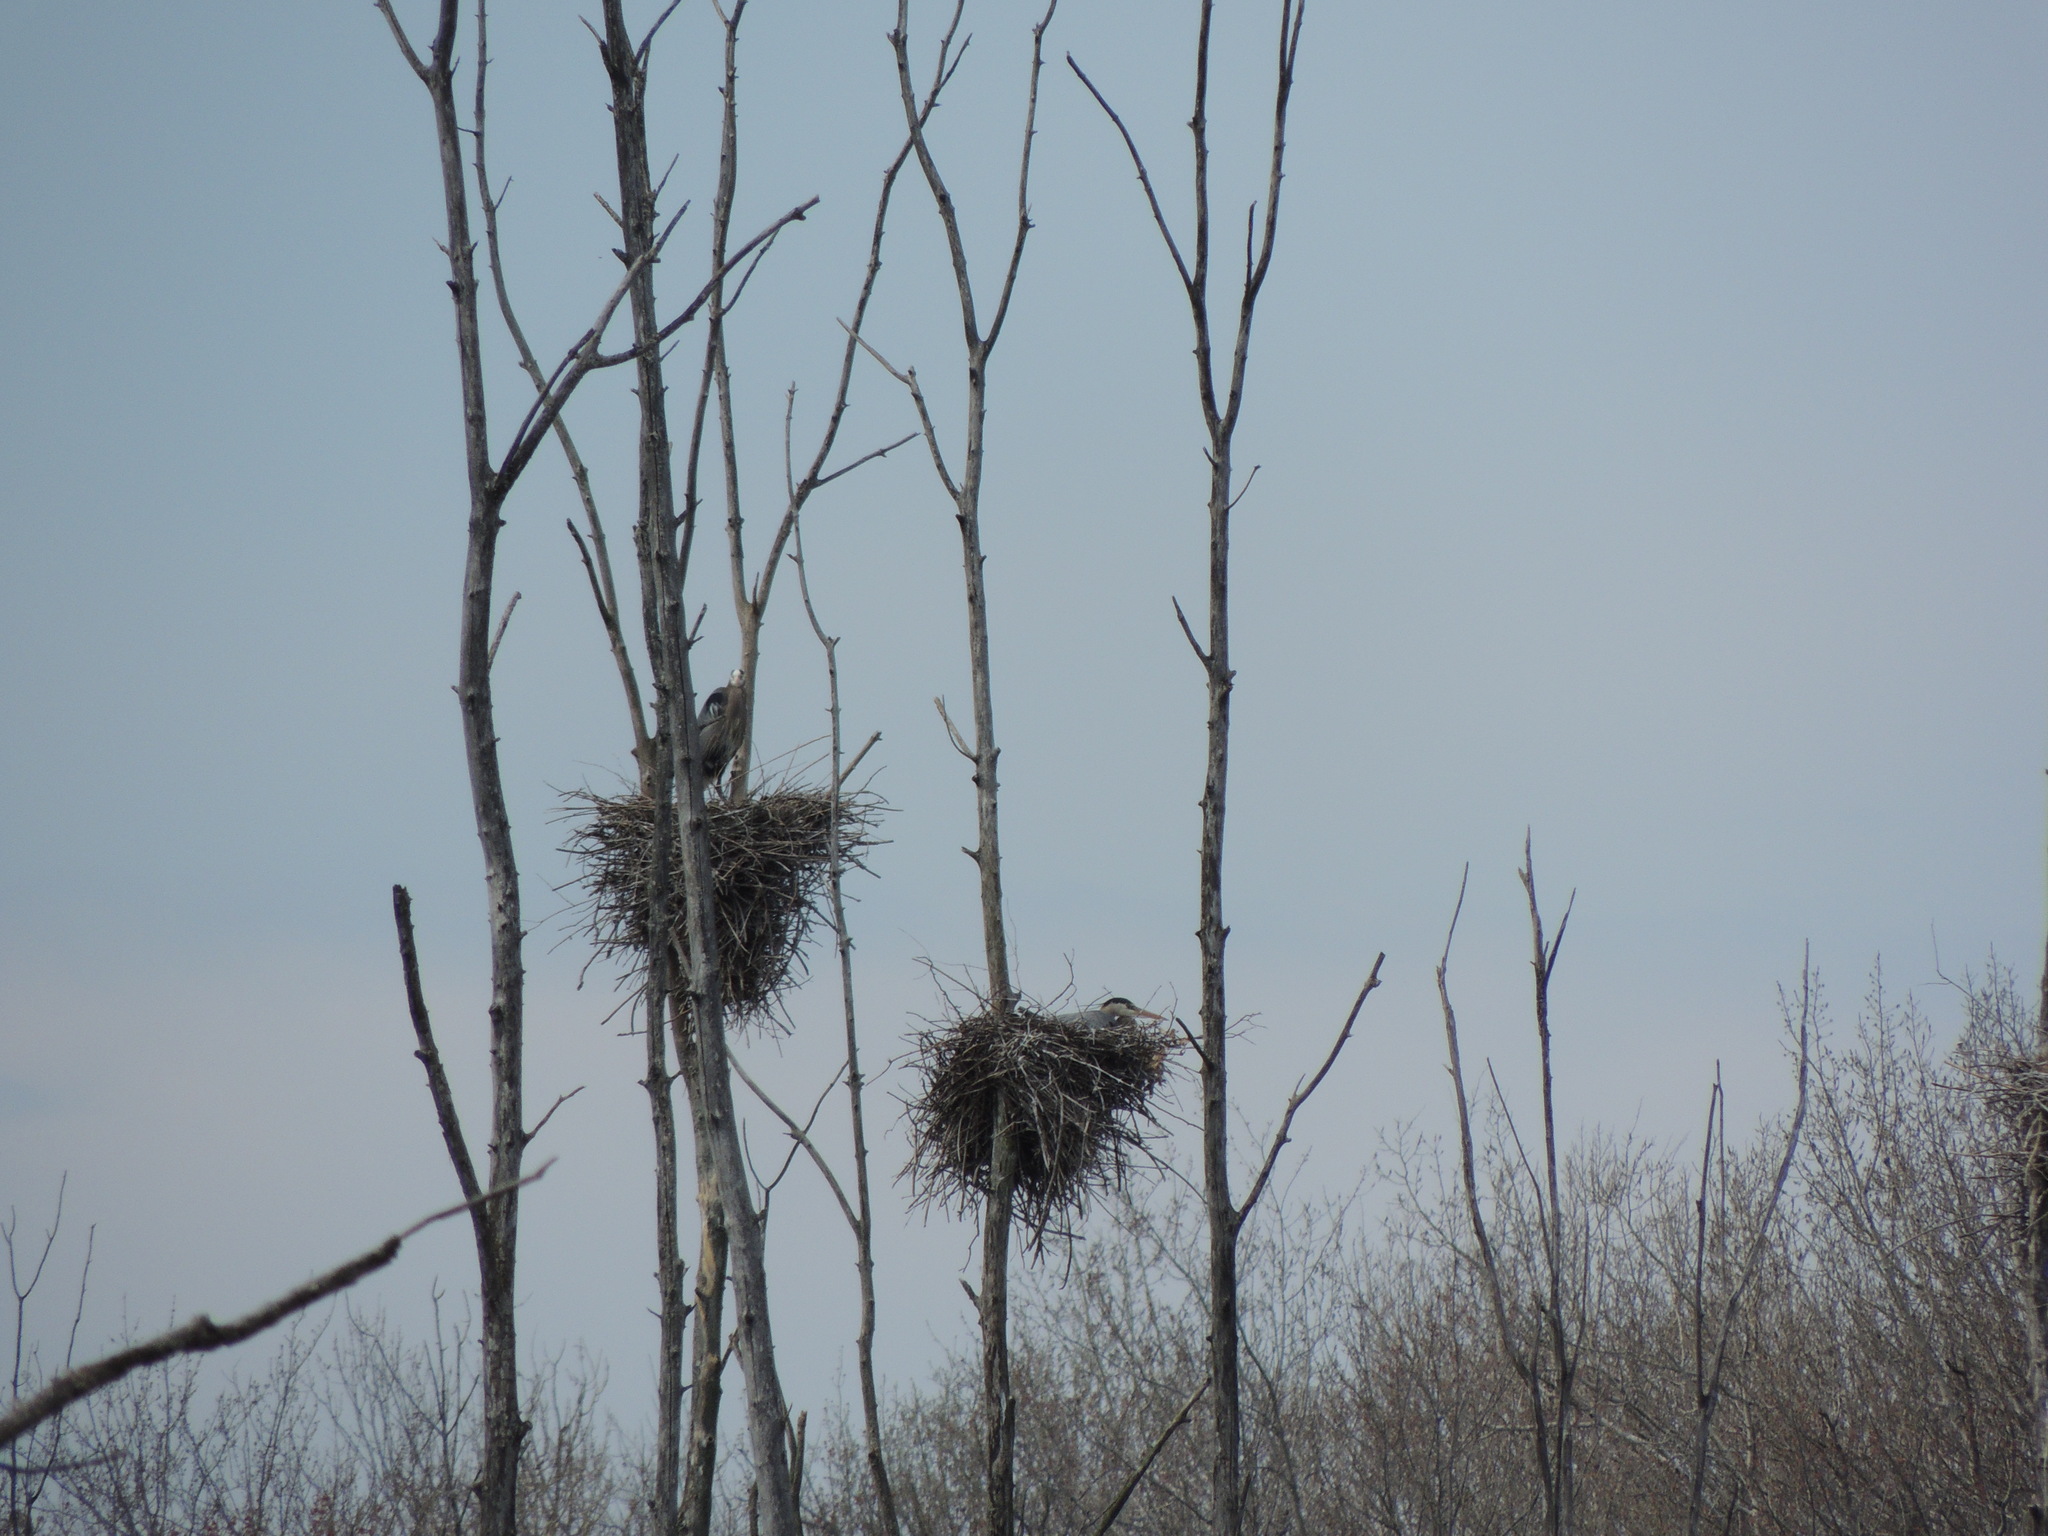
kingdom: Animalia
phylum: Chordata
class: Aves
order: Pelecaniformes
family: Ardeidae
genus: Ardea
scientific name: Ardea herodias
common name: Great blue heron
